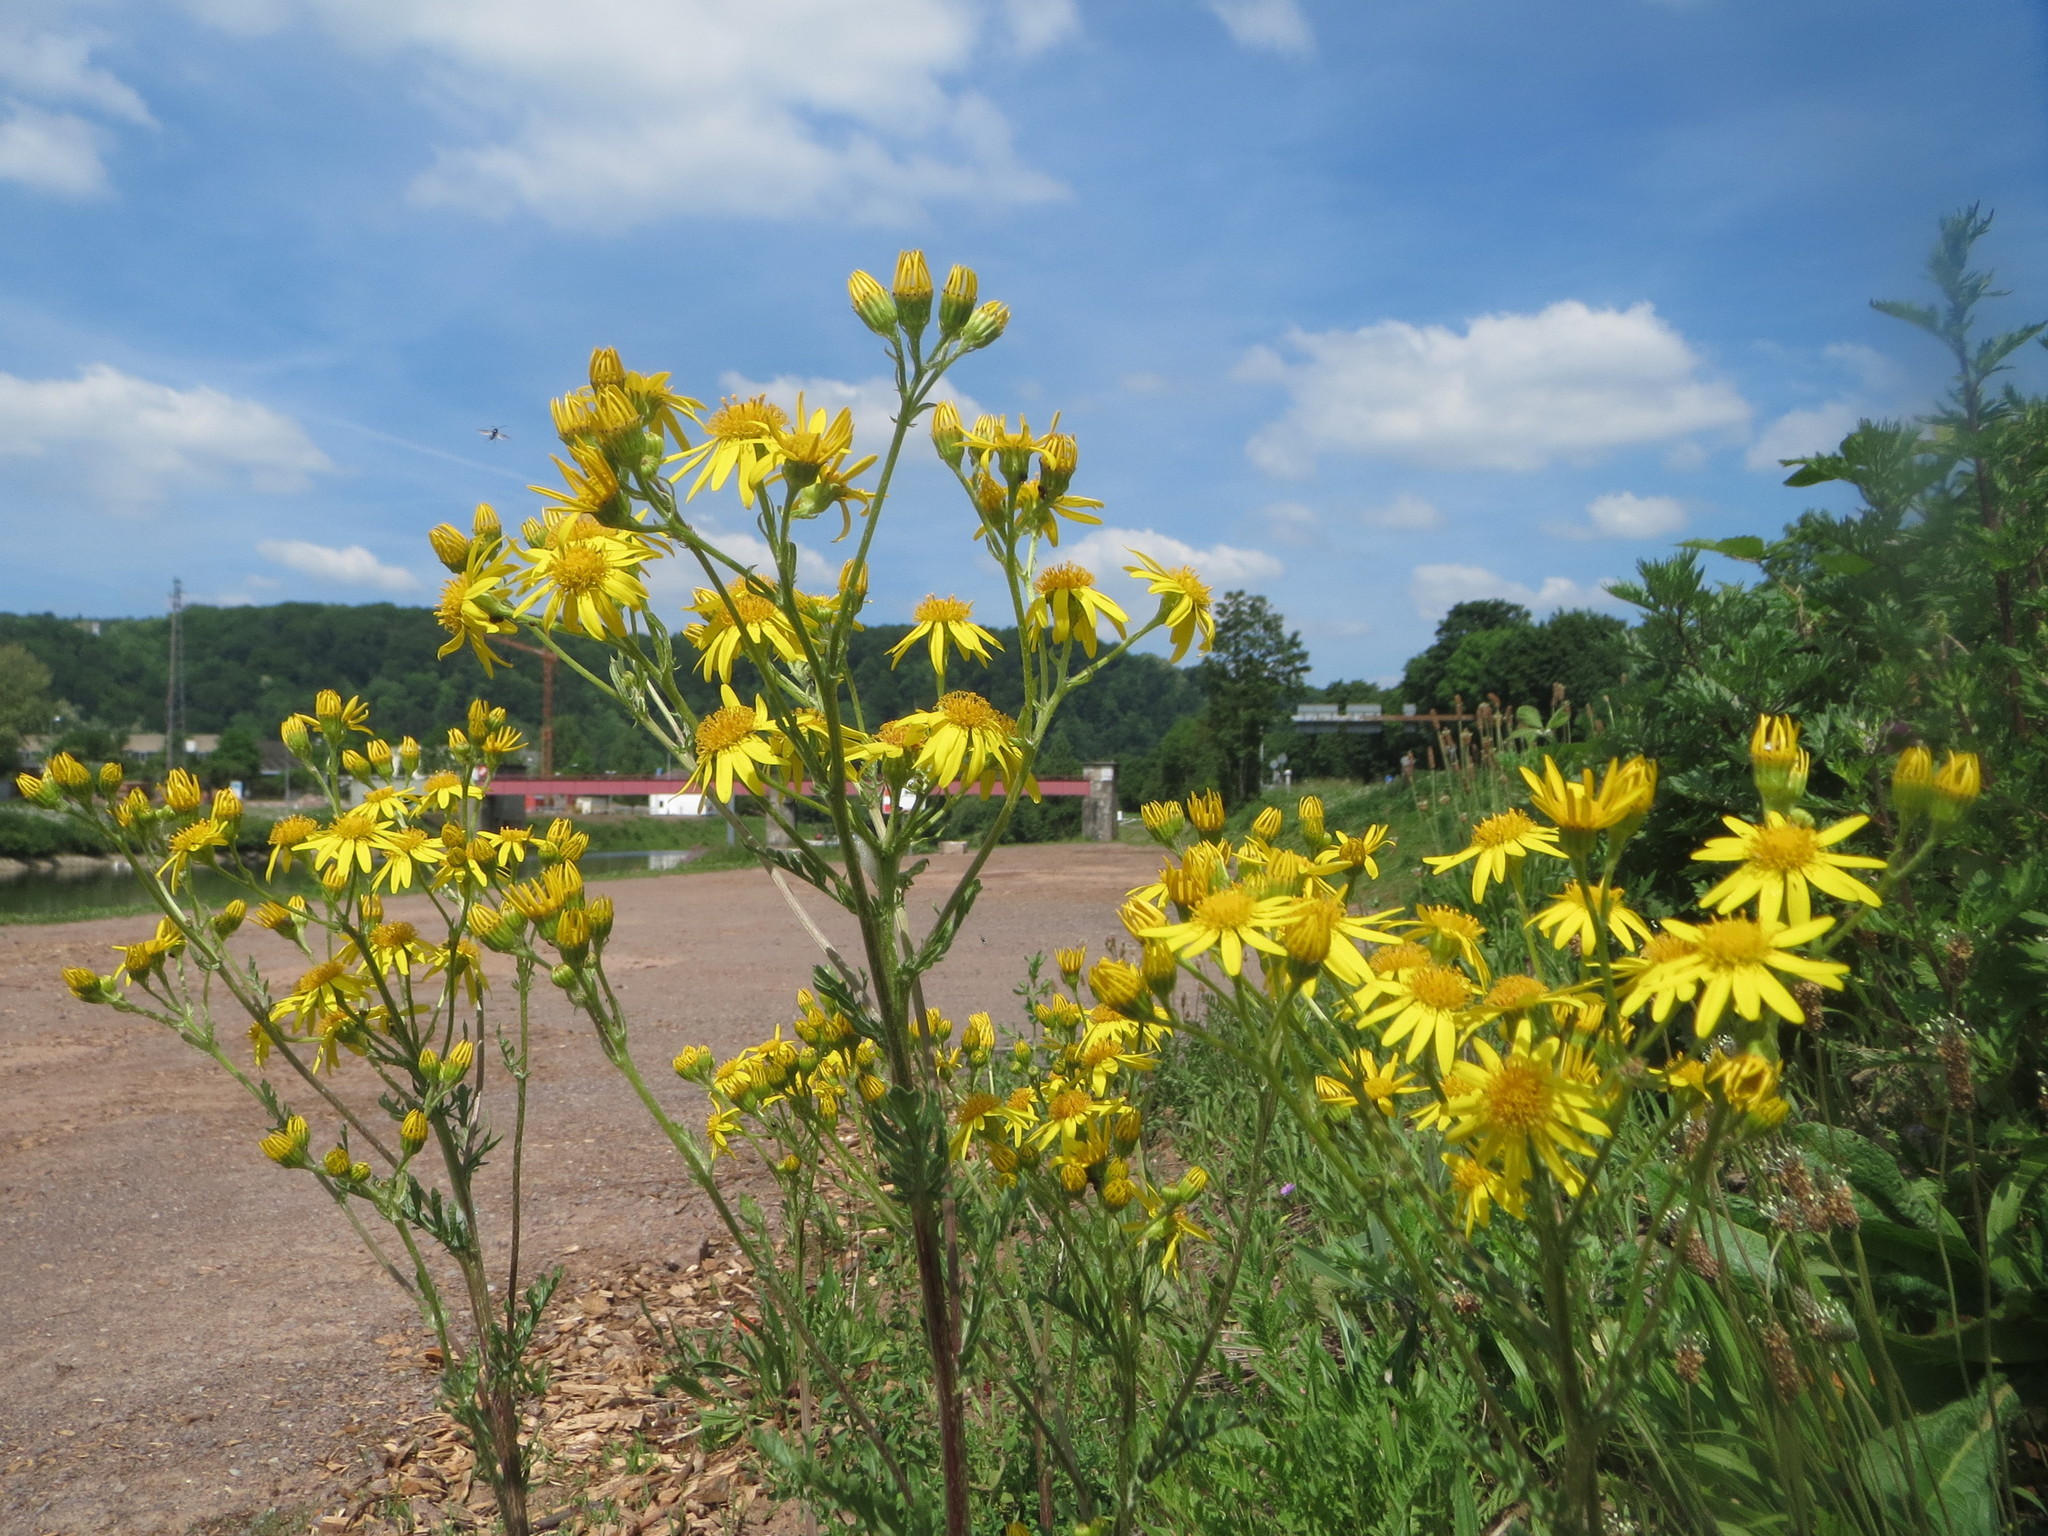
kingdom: Plantae
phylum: Tracheophyta
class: Magnoliopsida
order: Asterales
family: Asteraceae
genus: Jacobaea
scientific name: Jacobaea vulgaris
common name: Stinking willie
